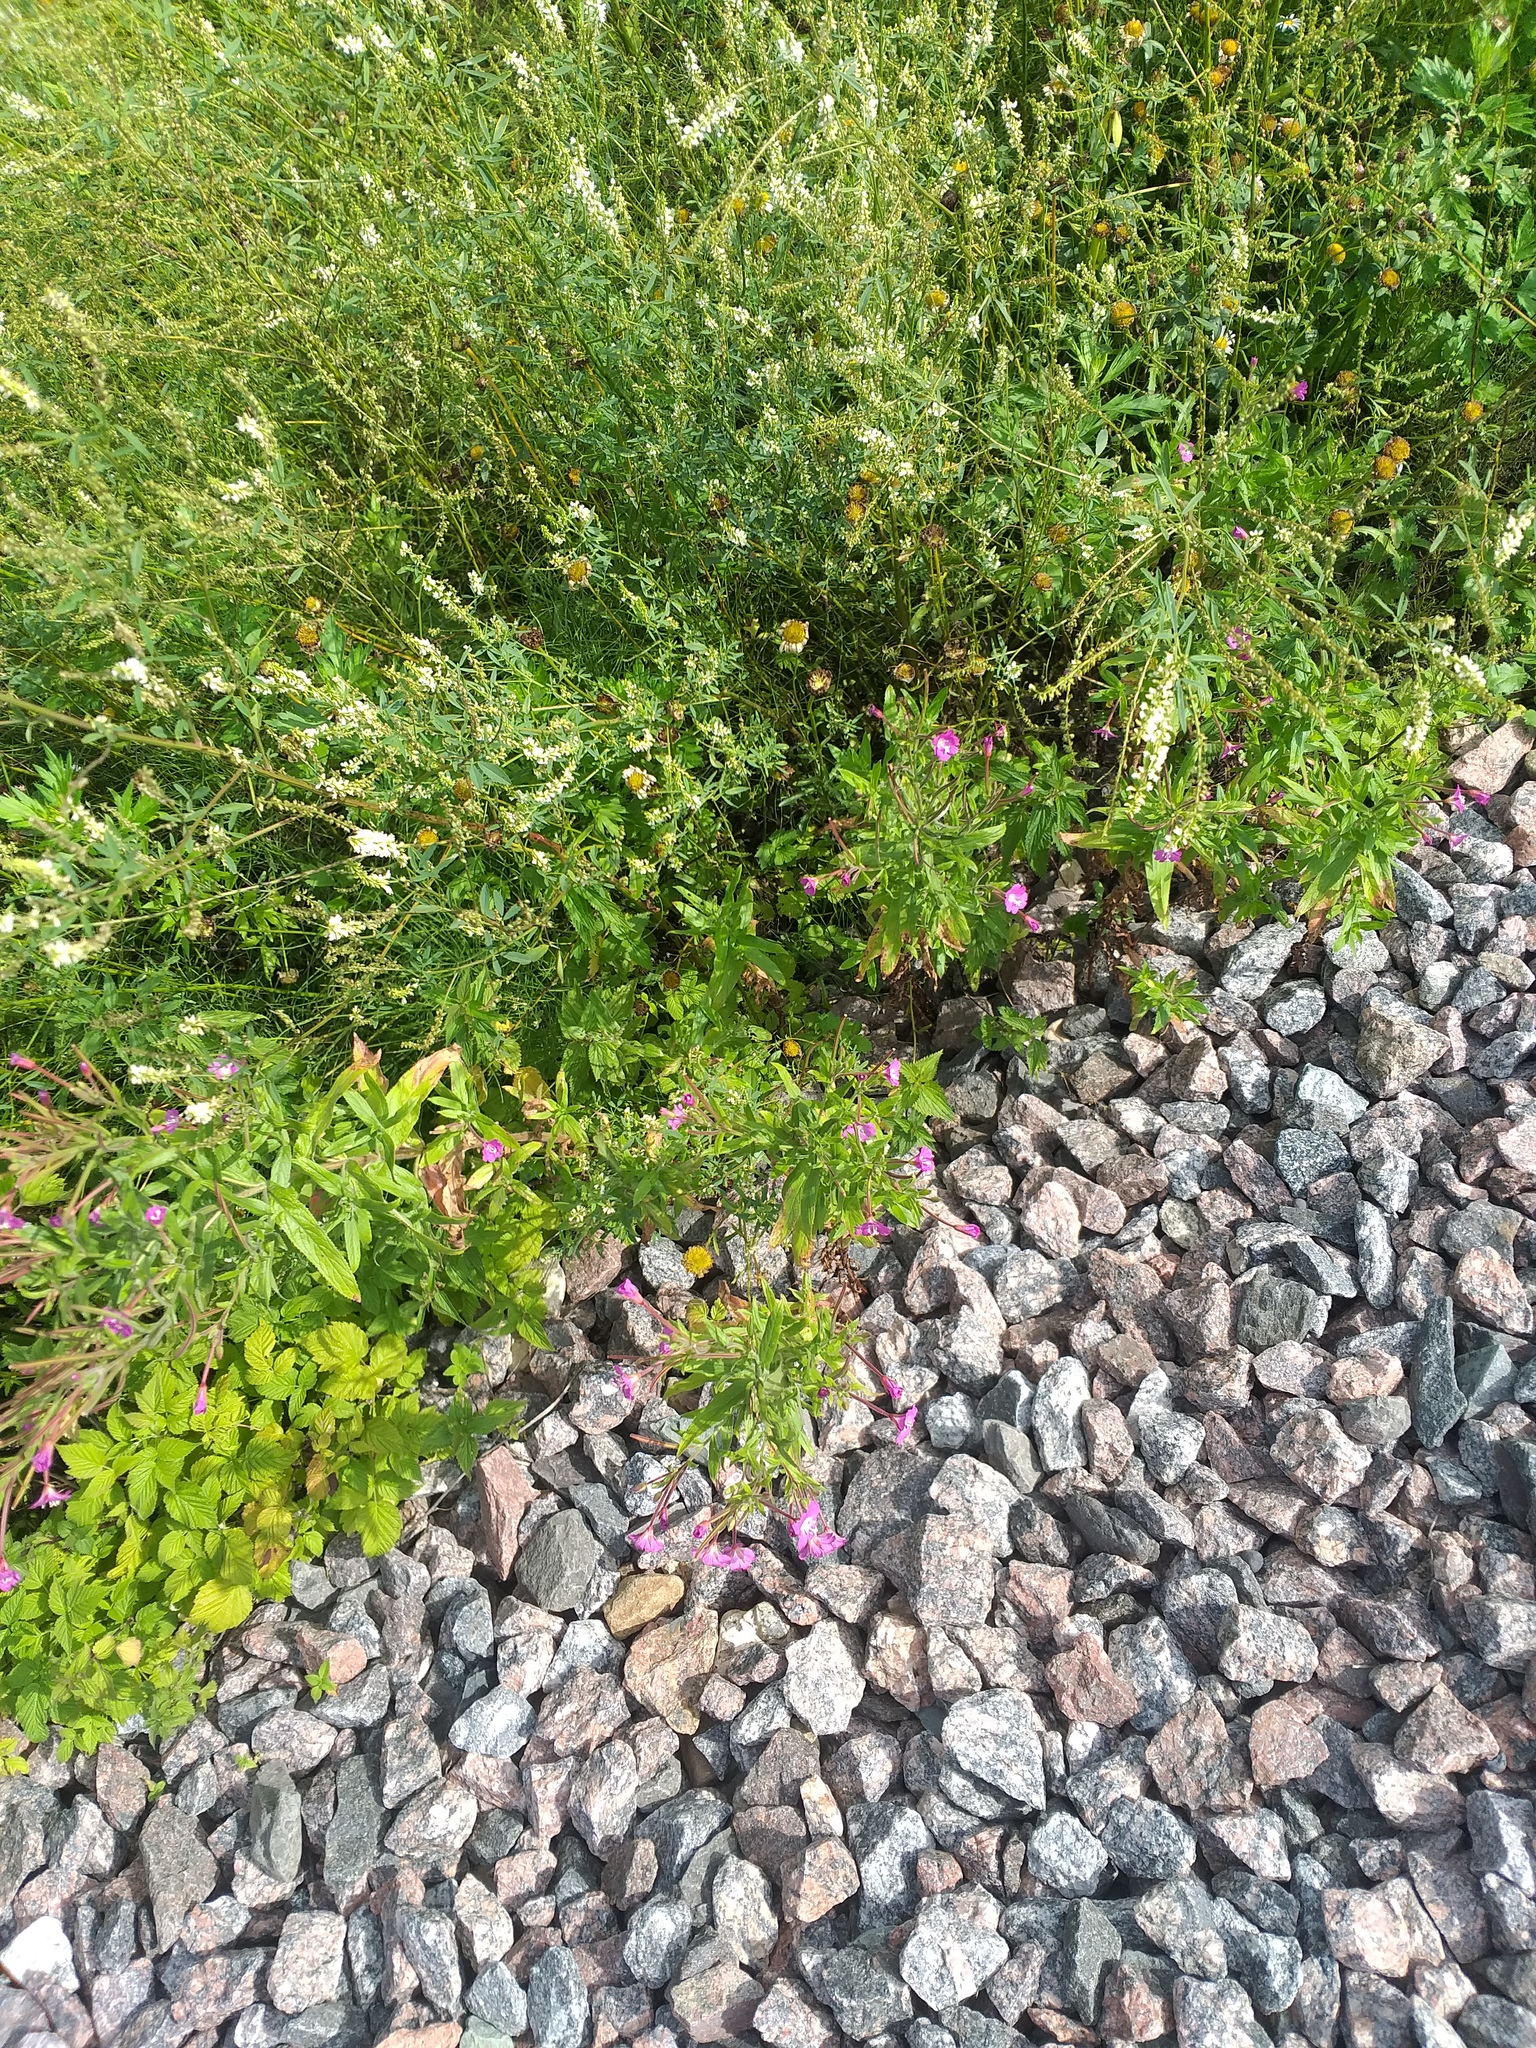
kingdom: Plantae
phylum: Tracheophyta
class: Magnoliopsida
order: Myrtales
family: Onagraceae
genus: Epilobium
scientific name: Epilobium hirsutum
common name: Great willowherb
